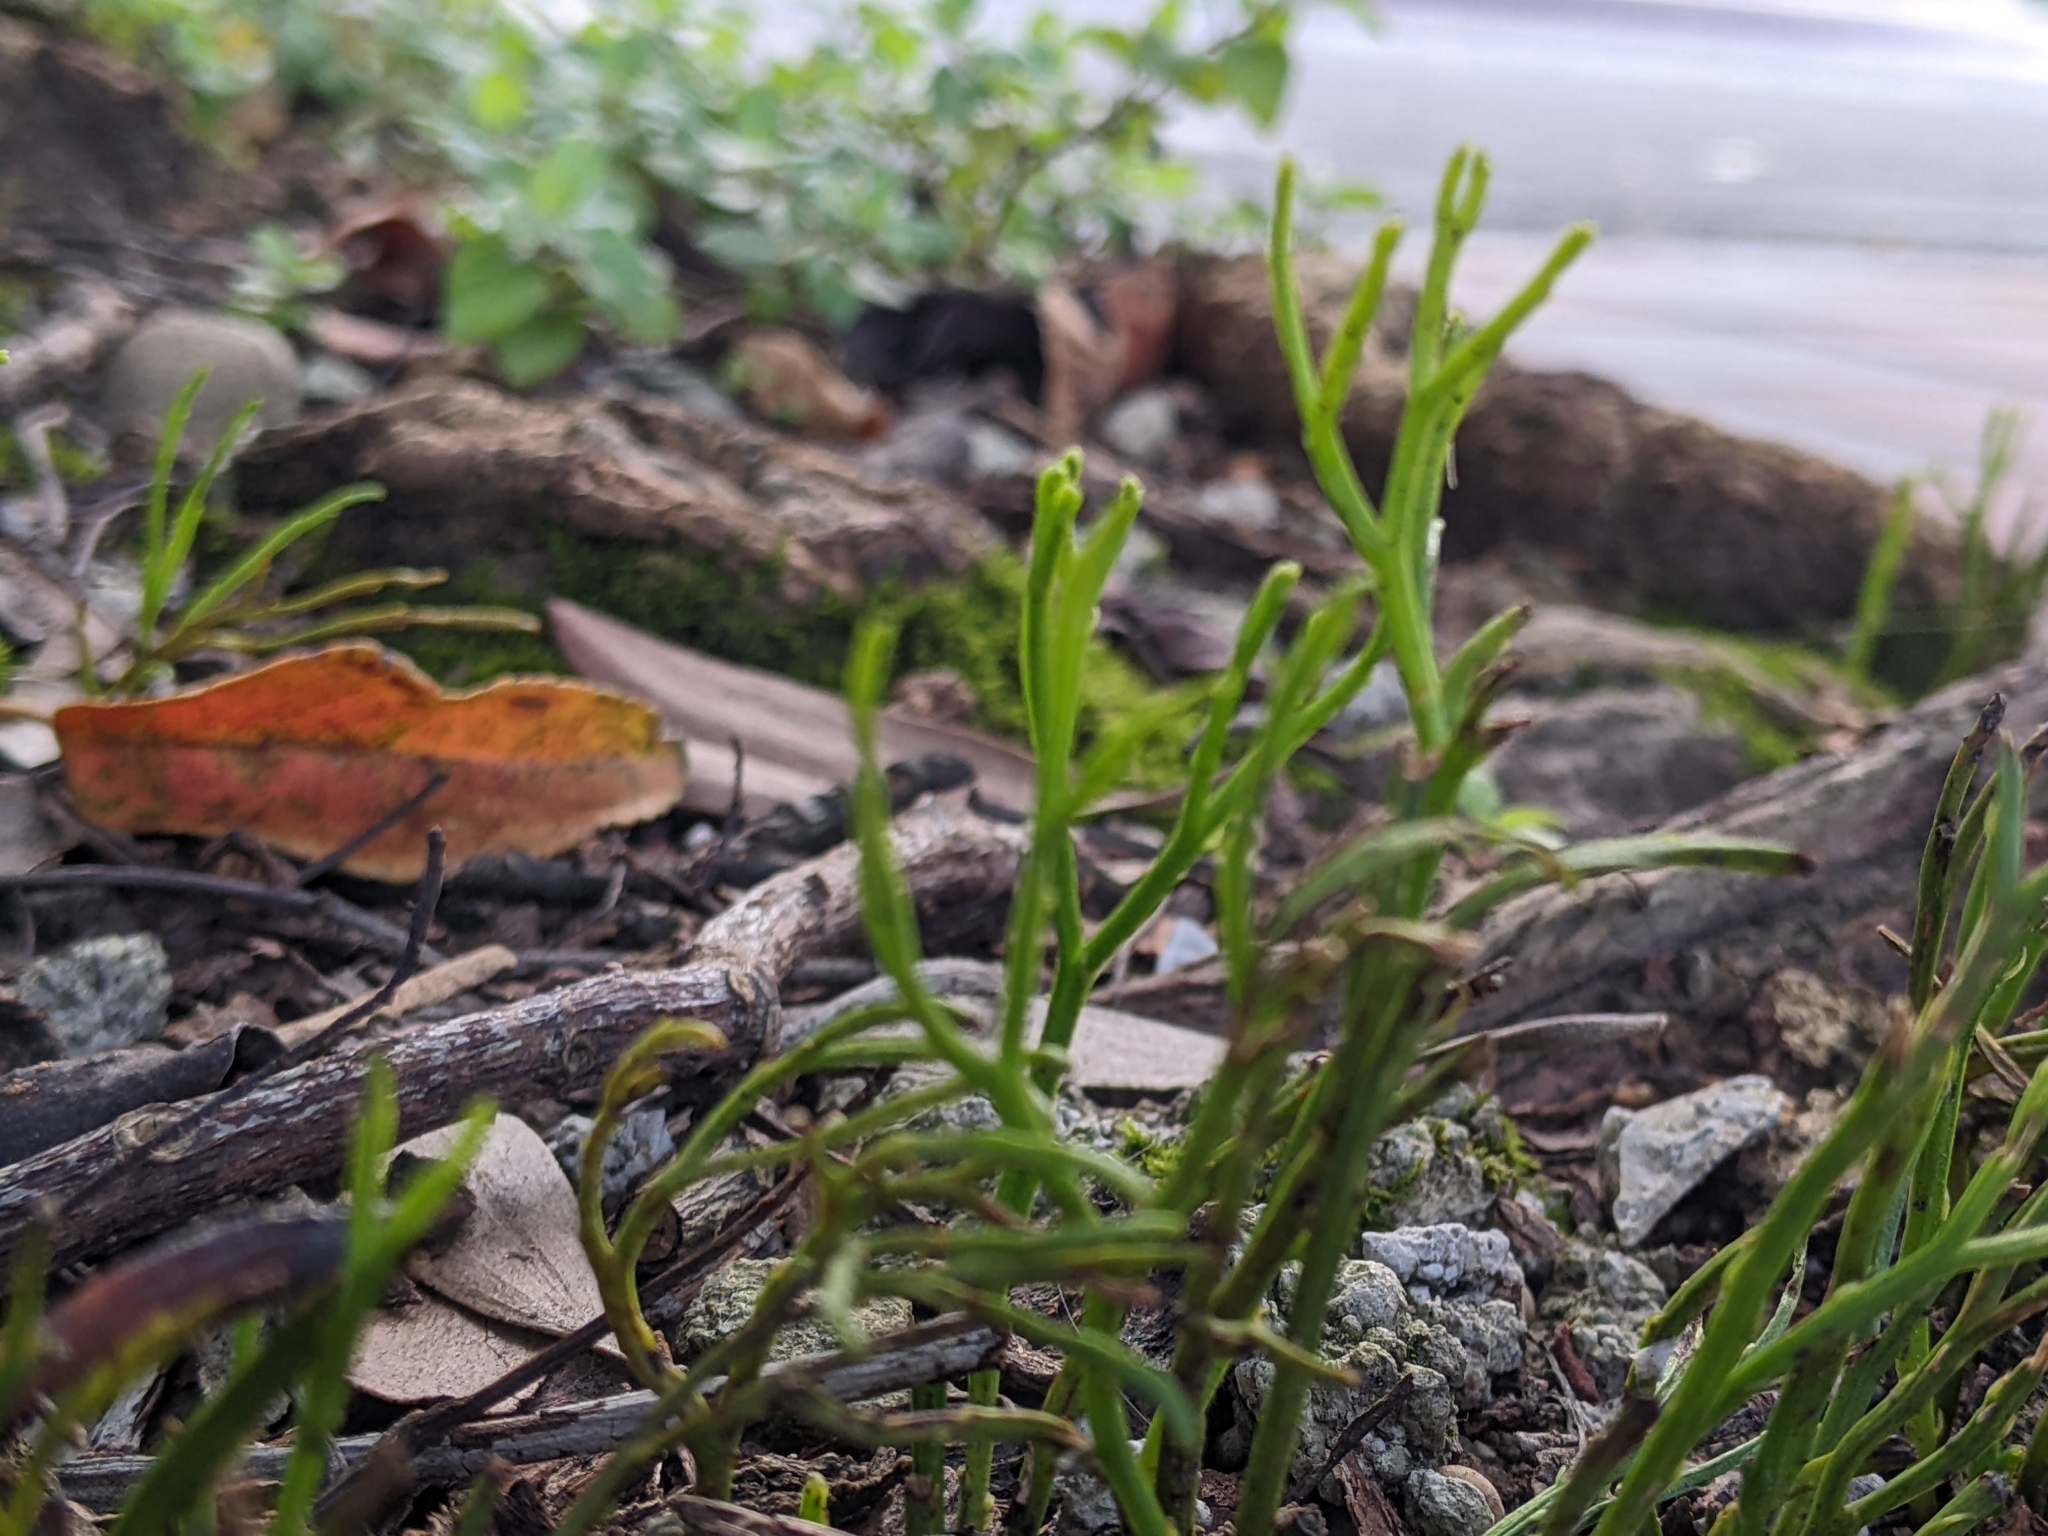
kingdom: Plantae
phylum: Tracheophyta
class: Polypodiopsida
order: Psilotales
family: Psilotaceae
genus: Psilotum
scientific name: Psilotum nudum
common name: Skeleton fork fern
